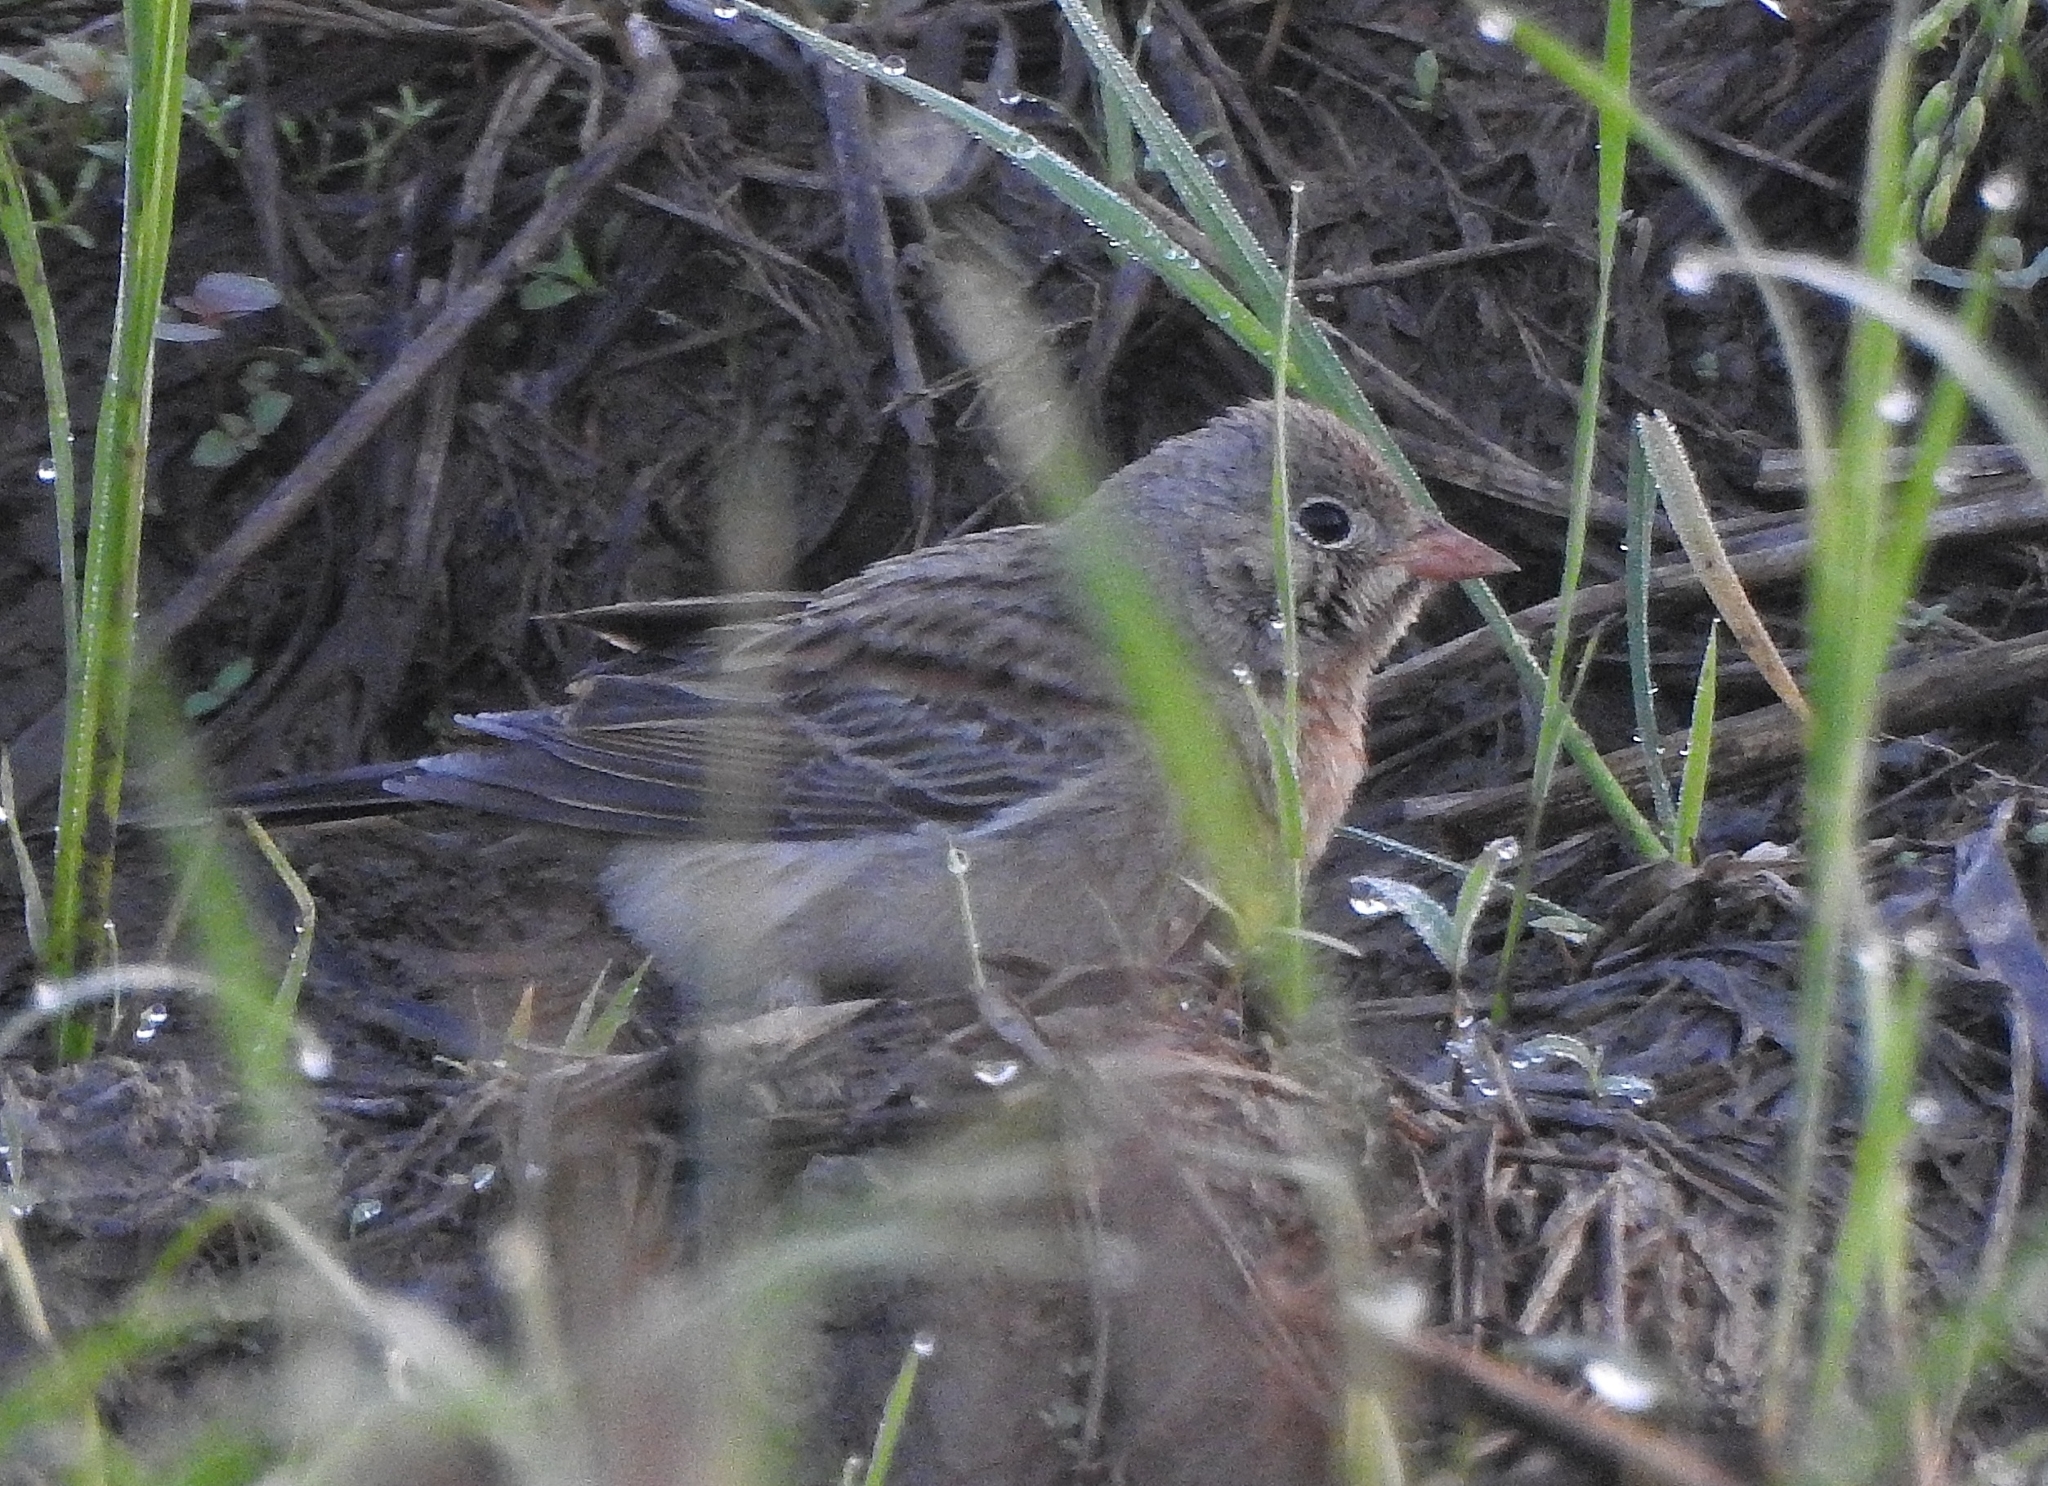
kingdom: Animalia
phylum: Chordata
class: Aves
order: Passeriformes
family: Emberizidae
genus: Emberiza
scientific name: Emberiza buchanani
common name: Grey-necked bunting
